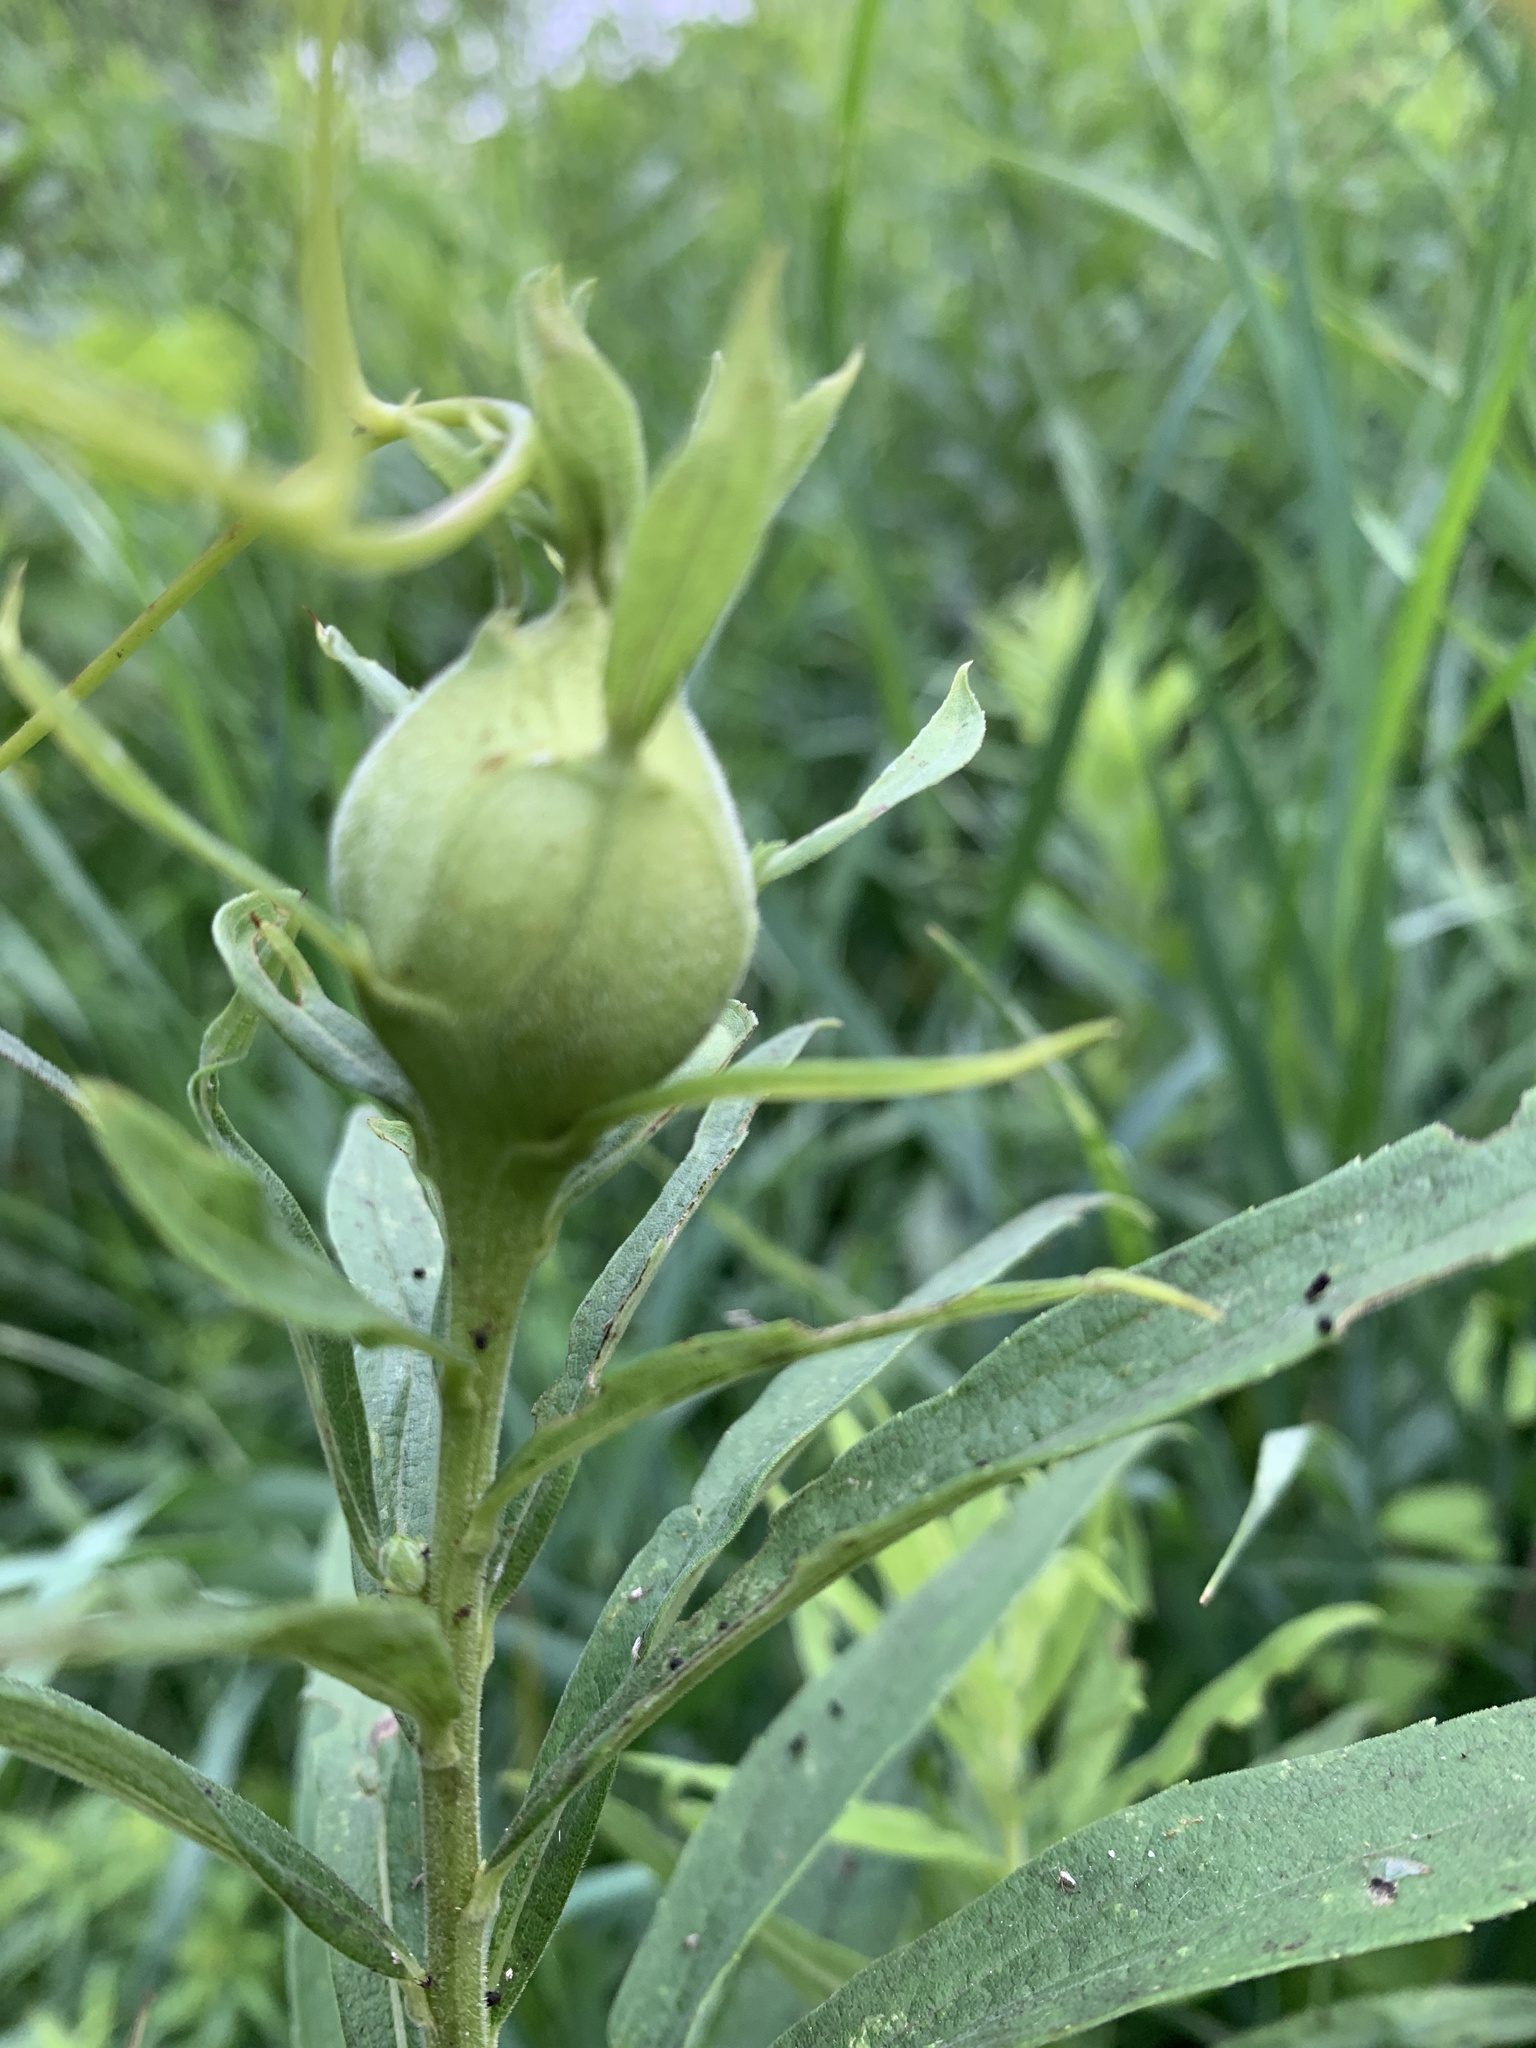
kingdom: Animalia
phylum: Arthropoda
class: Insecta
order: Diptera
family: Tephritidae
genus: Eurosta
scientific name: Eurosta solidaginis
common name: Goldenrod gall fly
